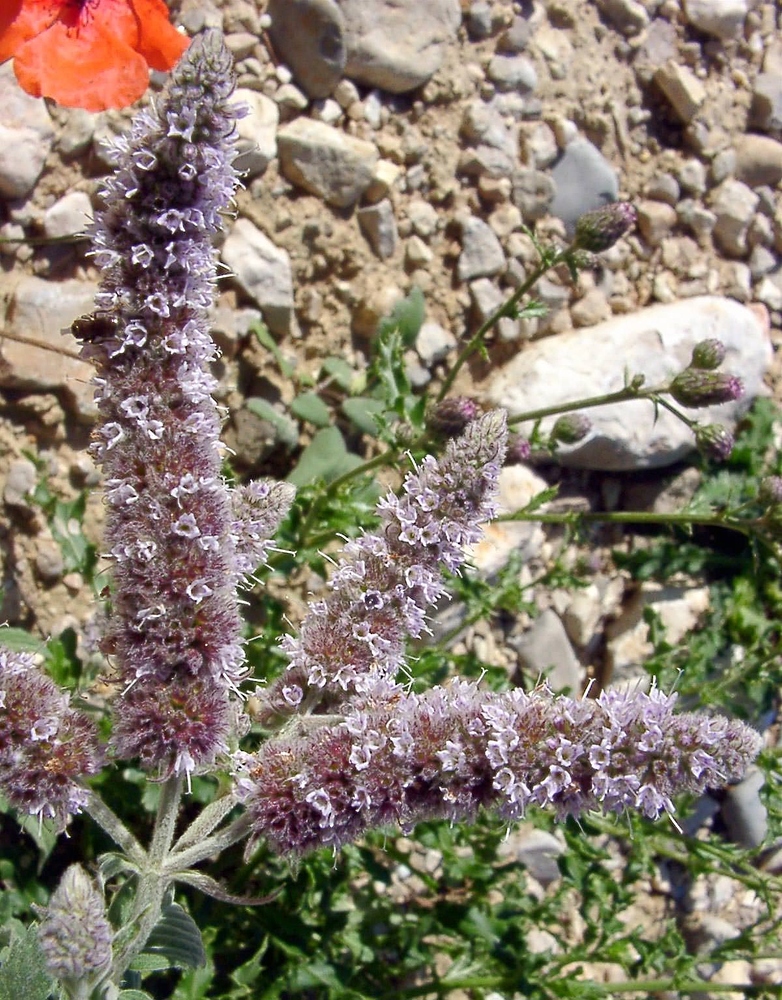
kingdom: Plantae
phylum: Tracheophyta
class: Magnoliopsida
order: Lamiales
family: Lamiaceae
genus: Mentha
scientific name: Mentha longifolia
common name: Horse mint
